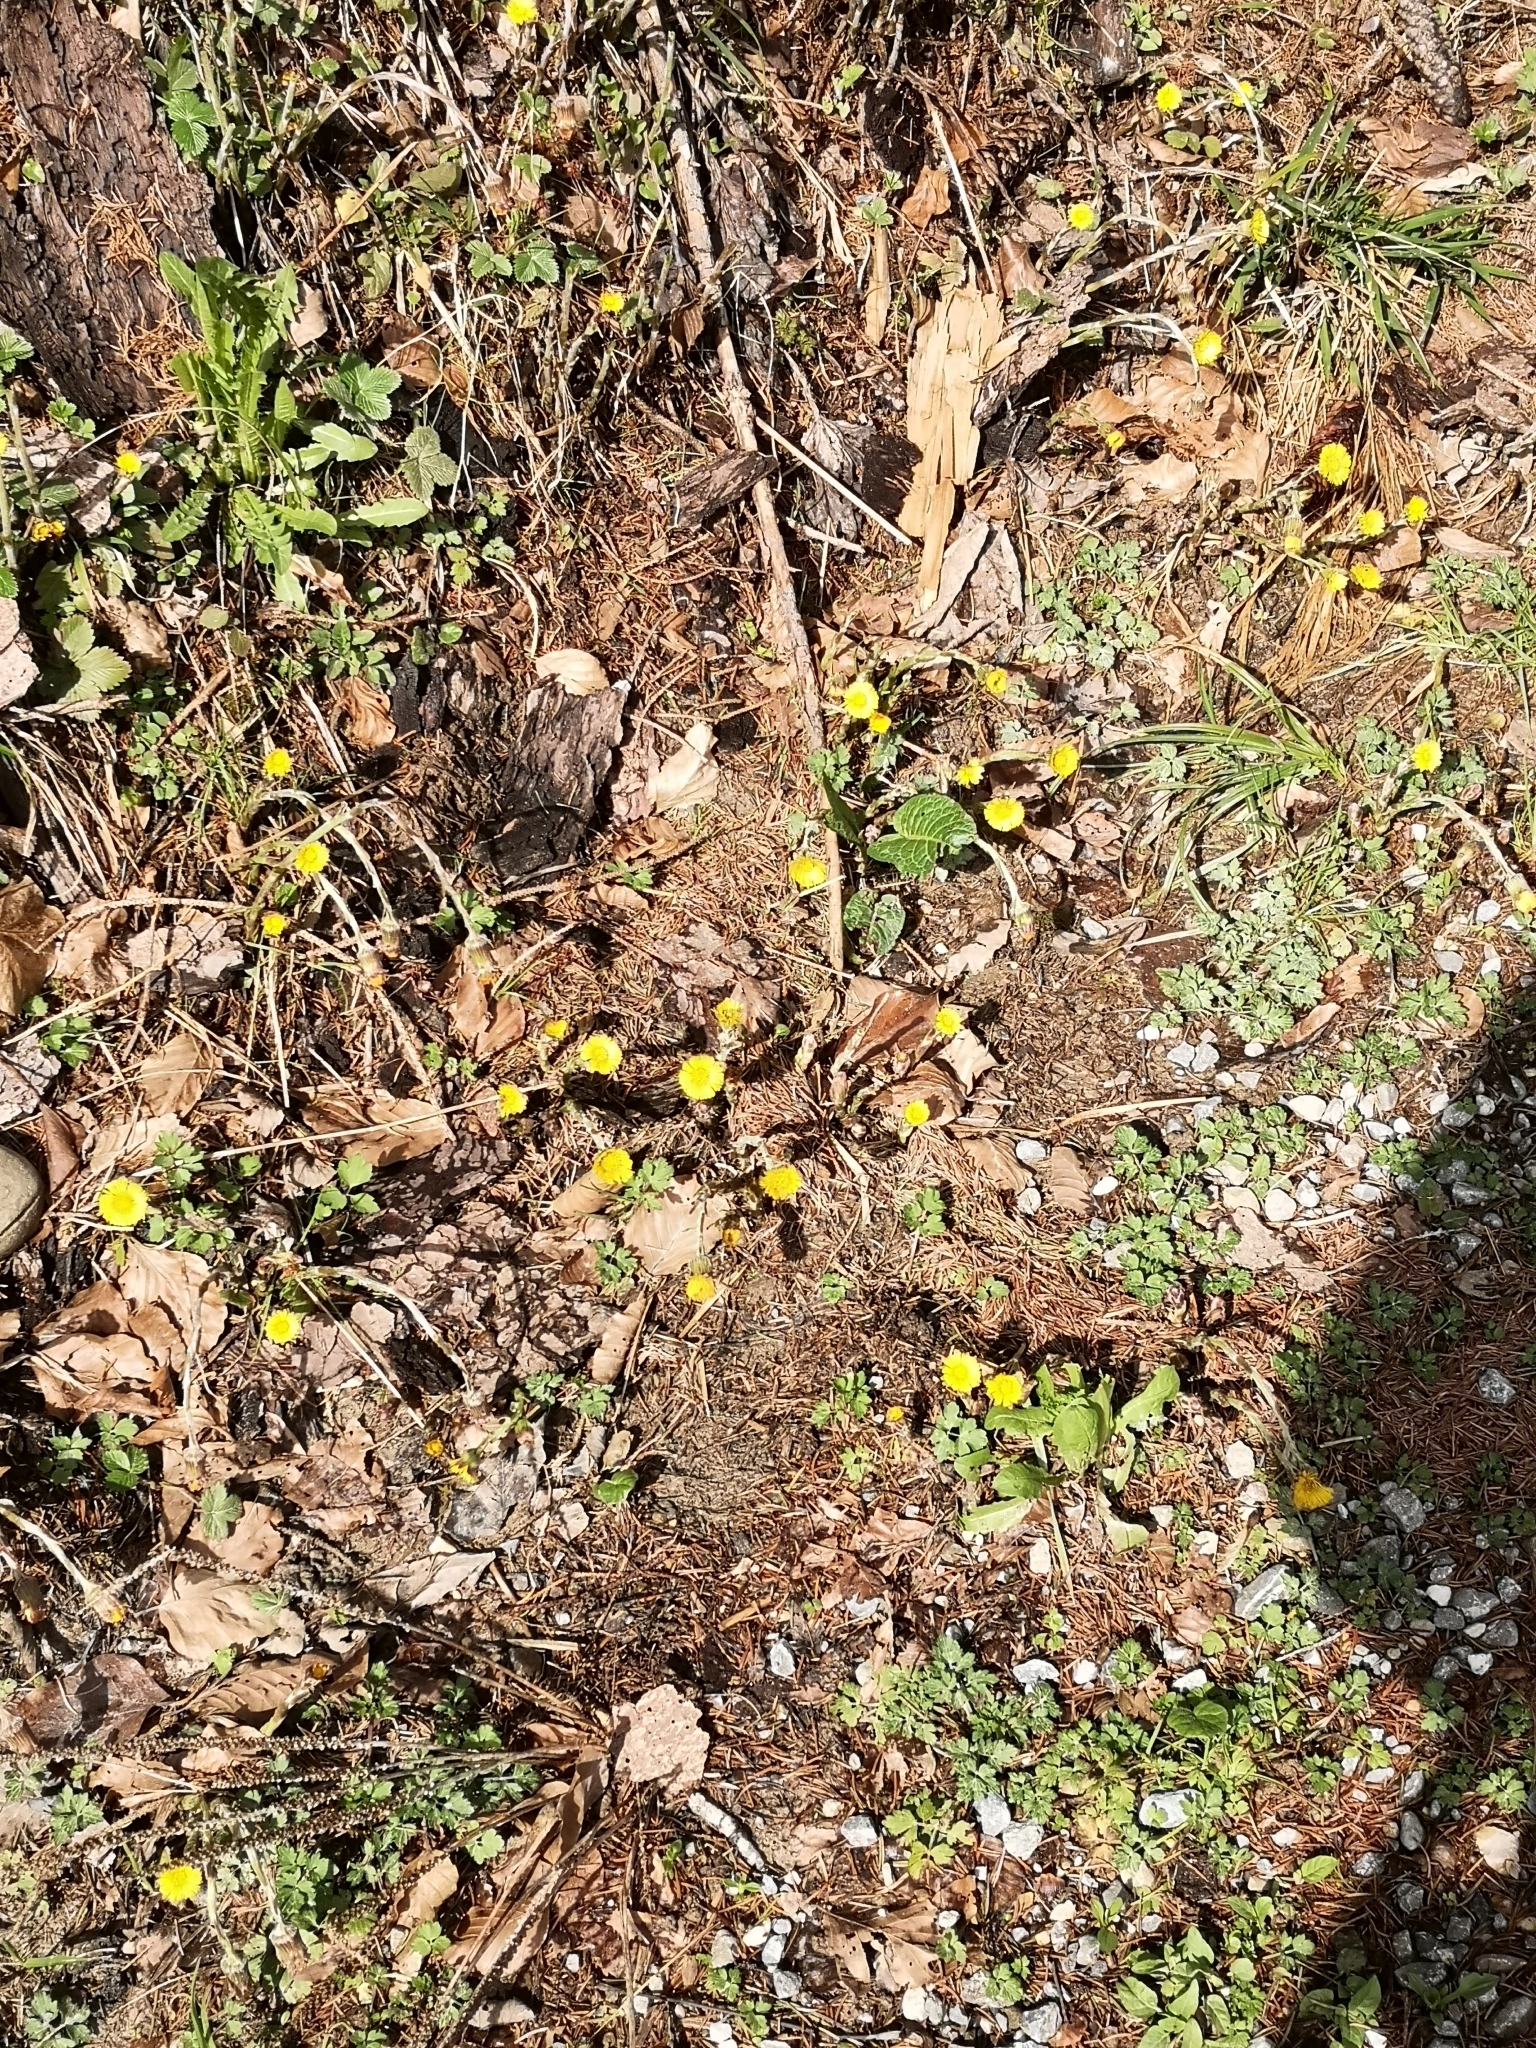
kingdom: Plantae
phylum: Tracheophyta
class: Magnoliopsida
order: Asterales
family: Asteraceae
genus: Tussilago
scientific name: Tussilago farfara
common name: Coltsfoot
